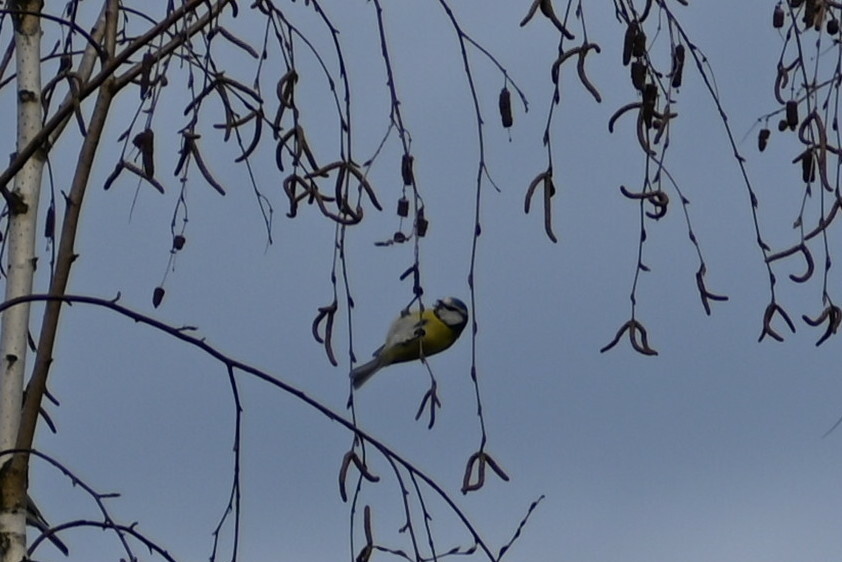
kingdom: Animalia
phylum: Chordata
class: Aves
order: Passeriformes
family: Paridae
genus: Cyanistes
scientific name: Cyanistes caeruleus
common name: Eurasian blue tit
